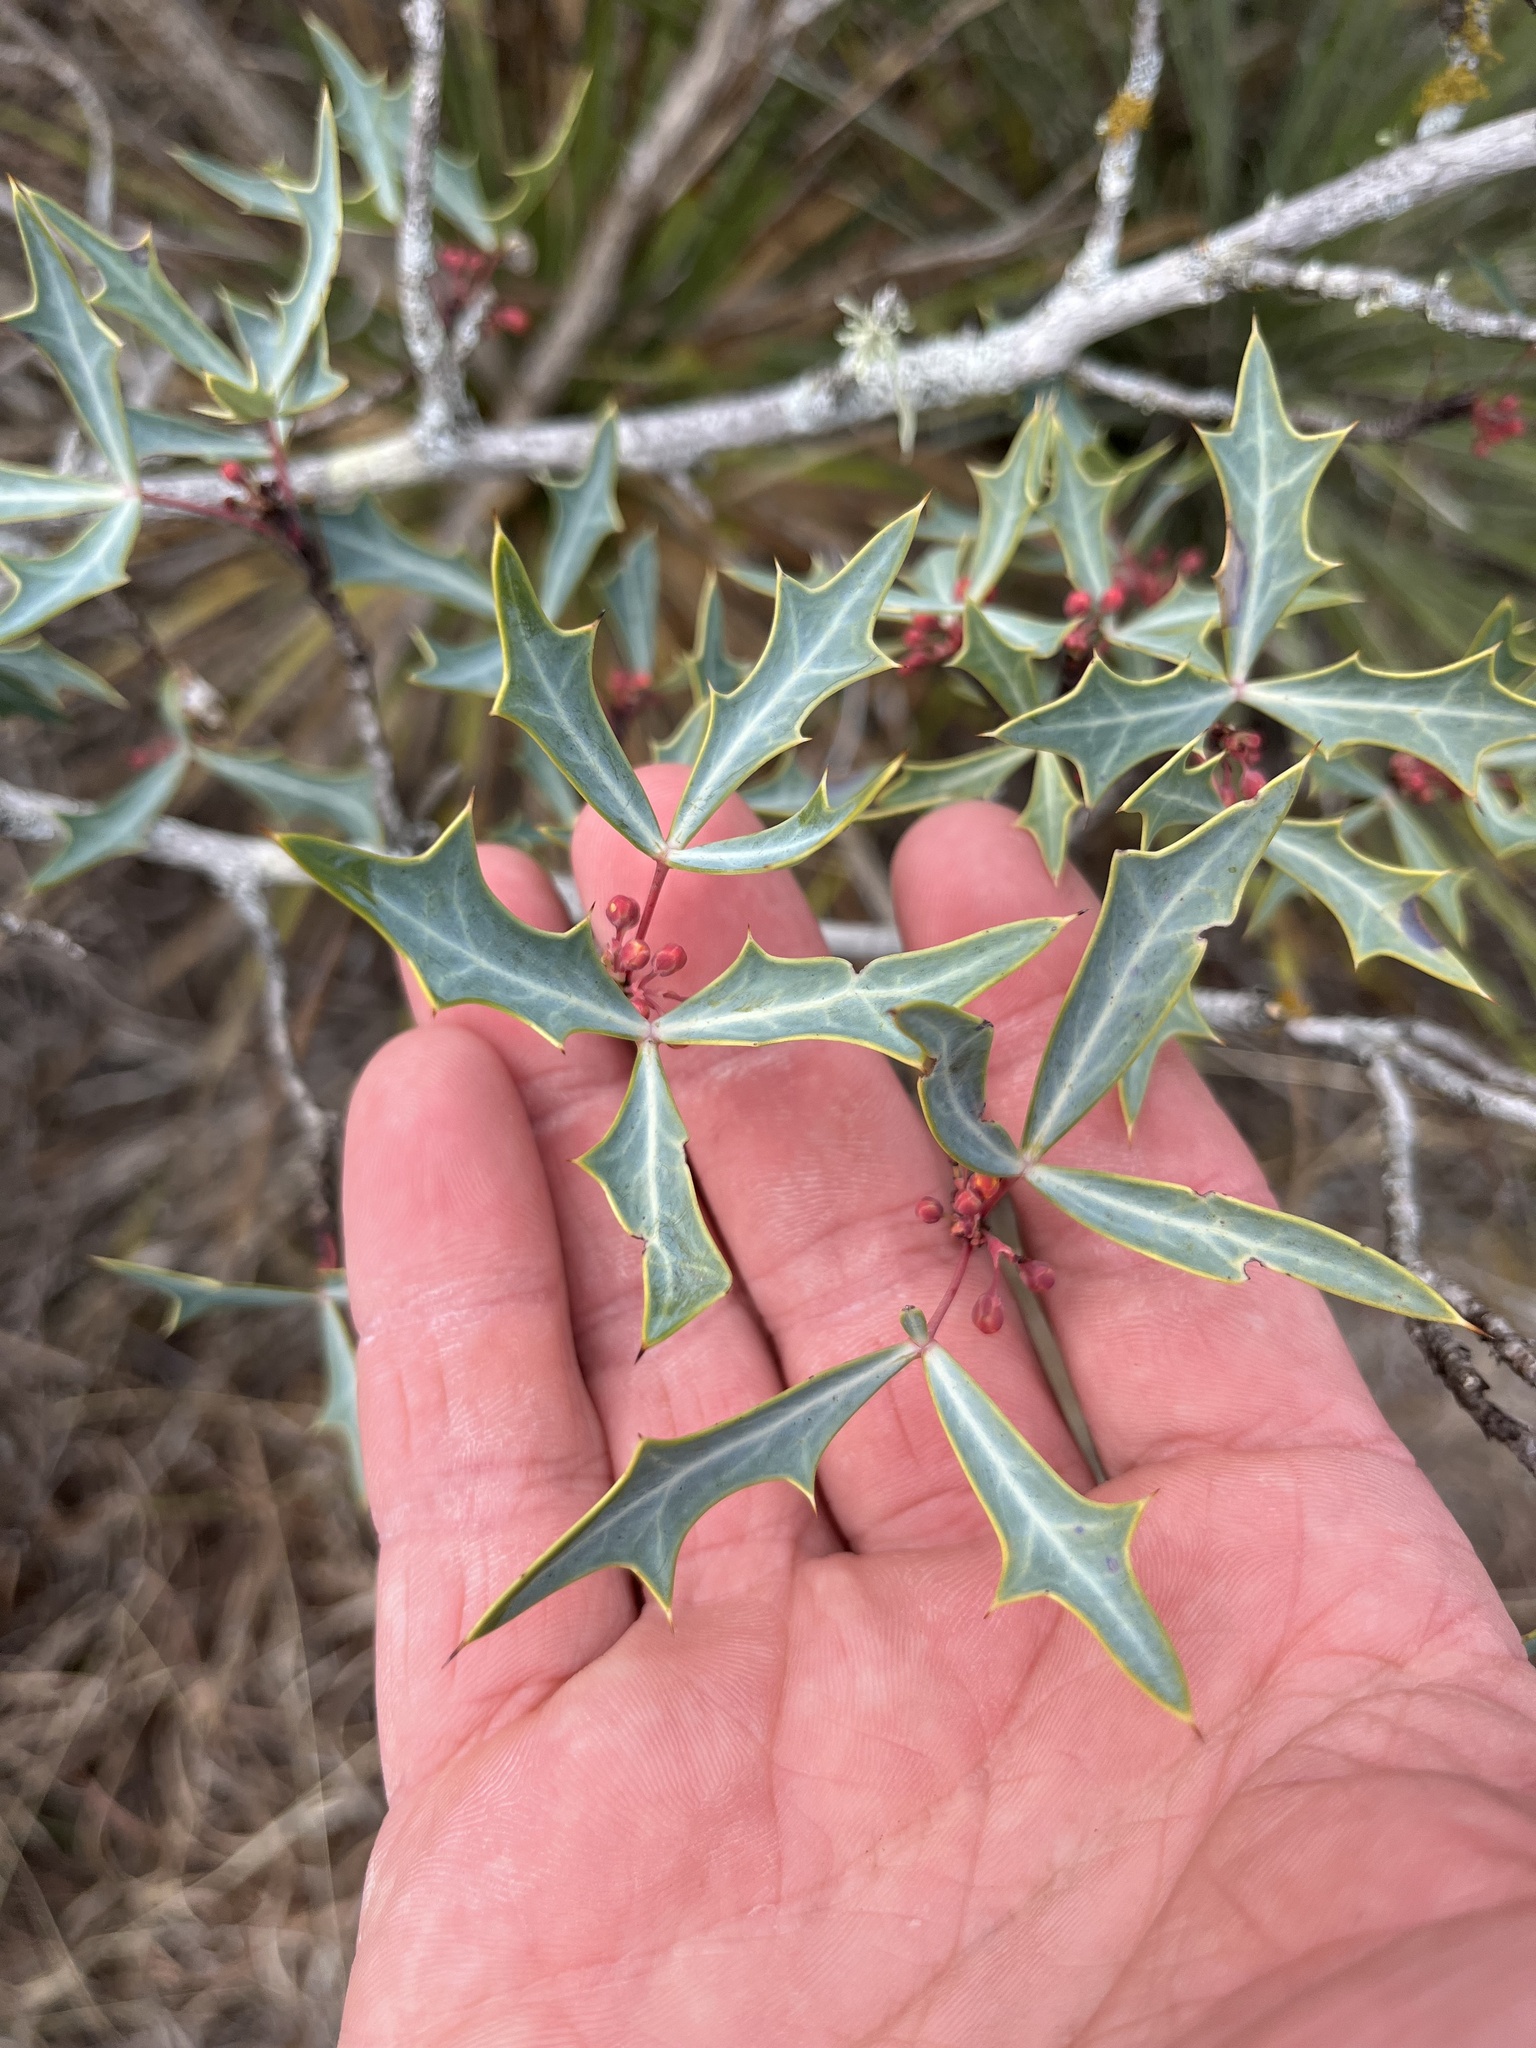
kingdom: Plantae
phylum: Tracheophyta
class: Magnoliopsida
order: Ranunculales
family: Berberidaceae
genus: Alloberberis
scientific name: Alloberberis trifoliolata
